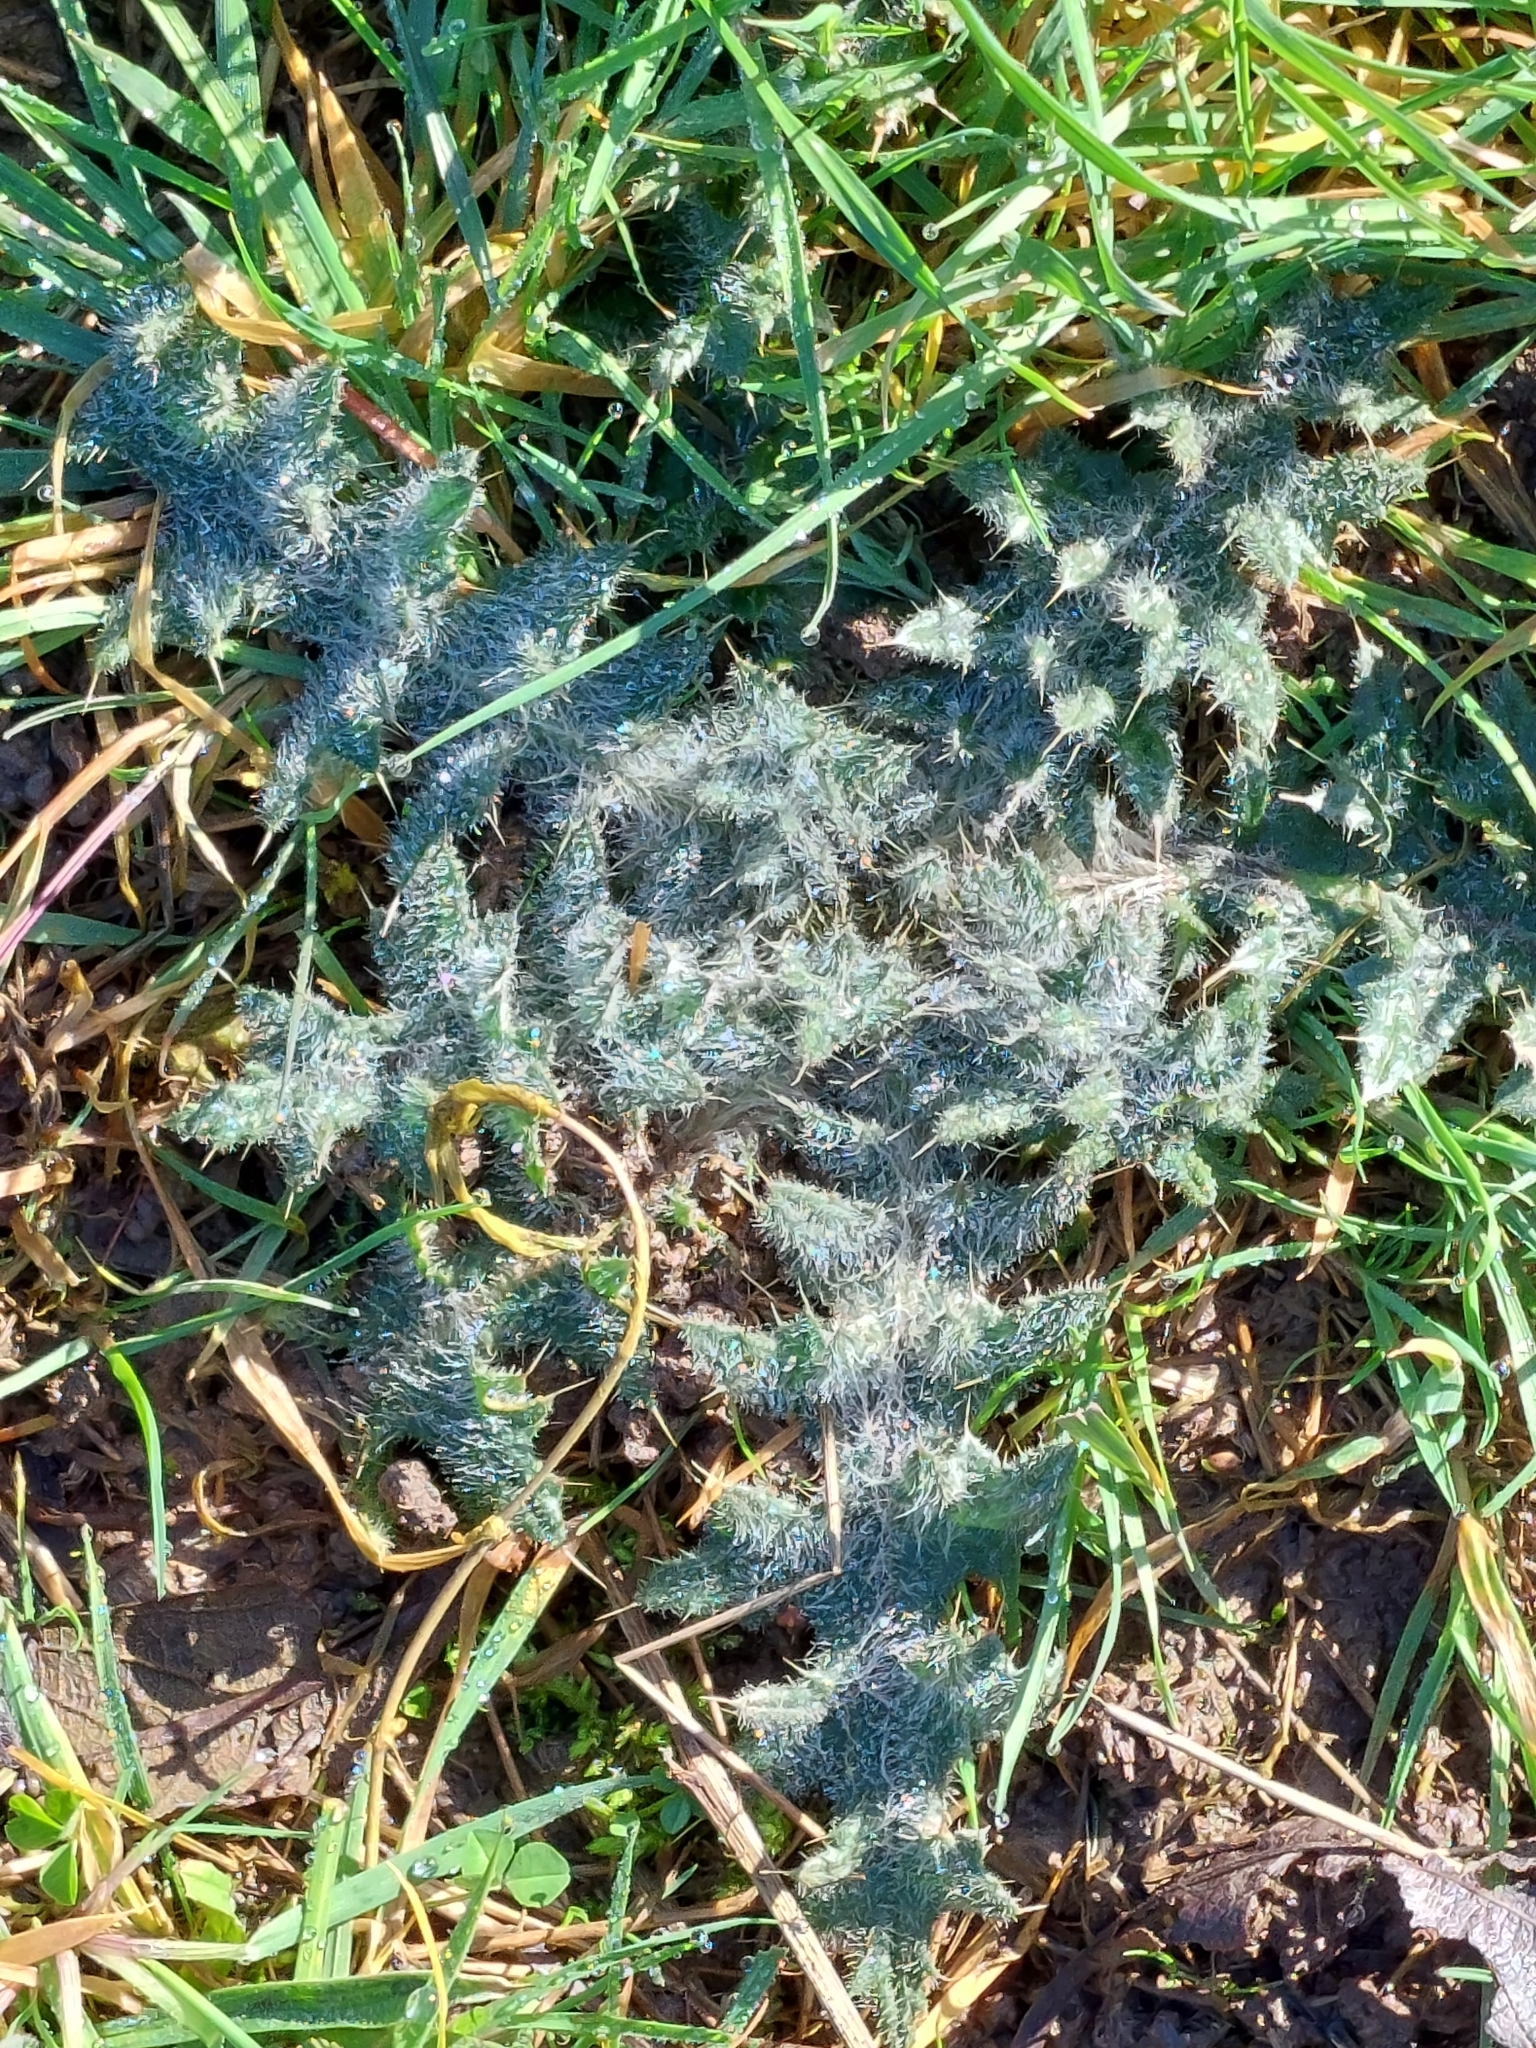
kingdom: Plantae
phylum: Tracheophyta
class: Magnoliopsida
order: Asterales
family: Asteraceae
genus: Cirsium
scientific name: Cirsium vulgare
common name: Bull thistle
